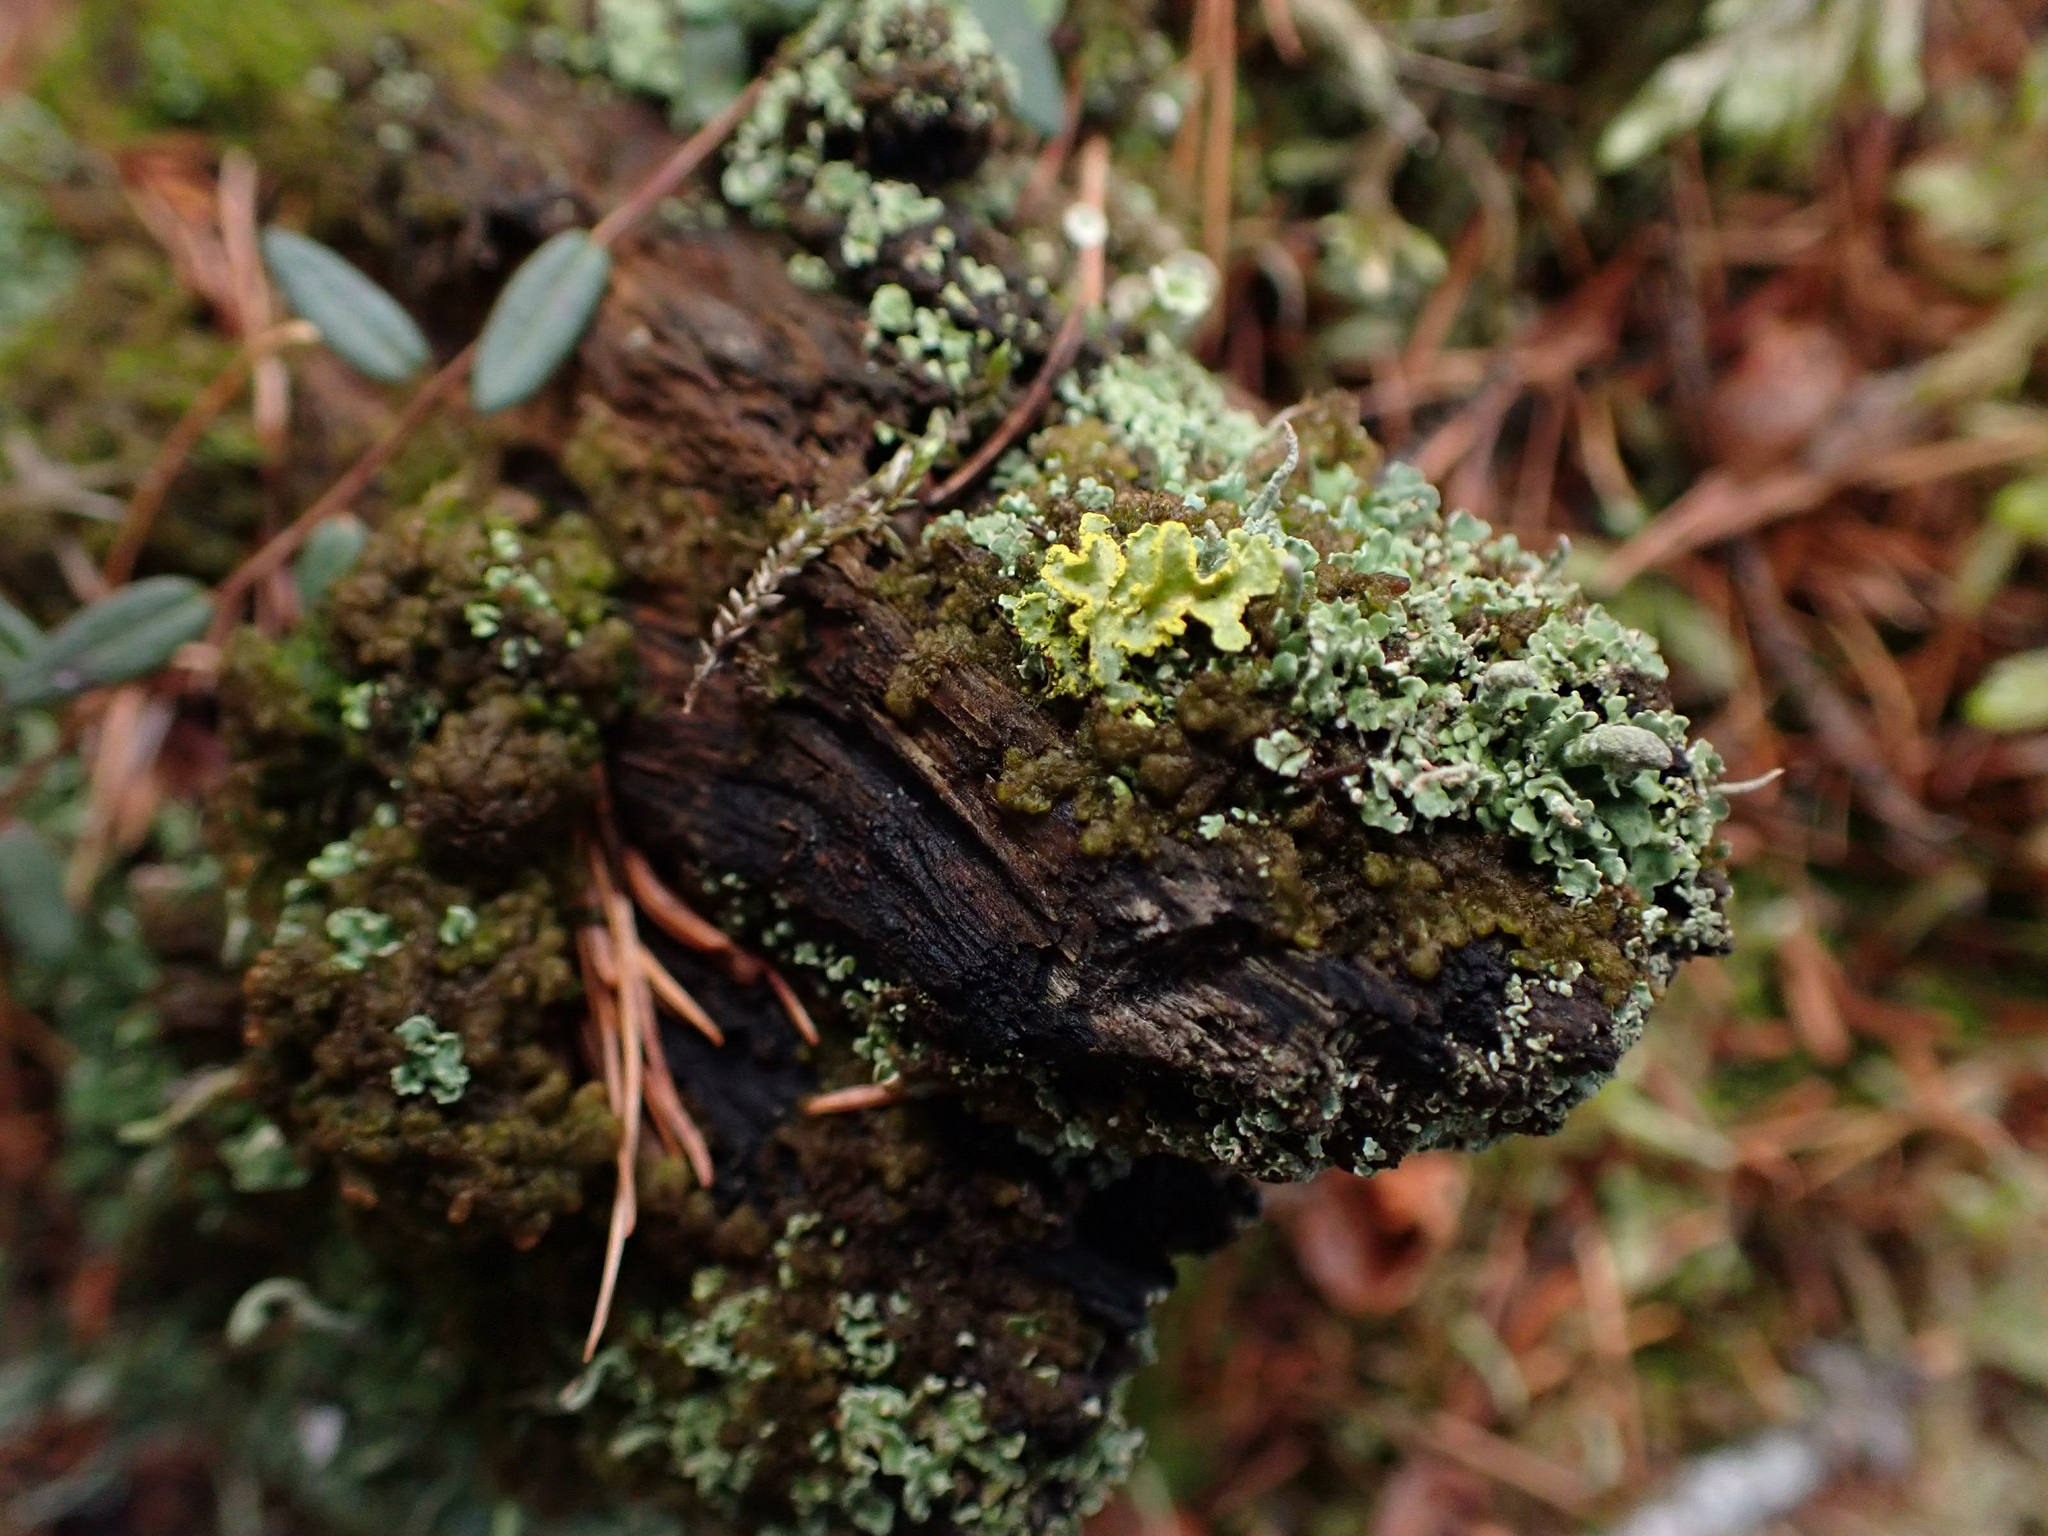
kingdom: Fungi
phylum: Ascomycota
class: Lecanoromycetes
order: Lecanorales
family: Parmeliaceae
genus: Vulpicida
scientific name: Vulpicida pinastri
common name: Powdered sunshine lichen
